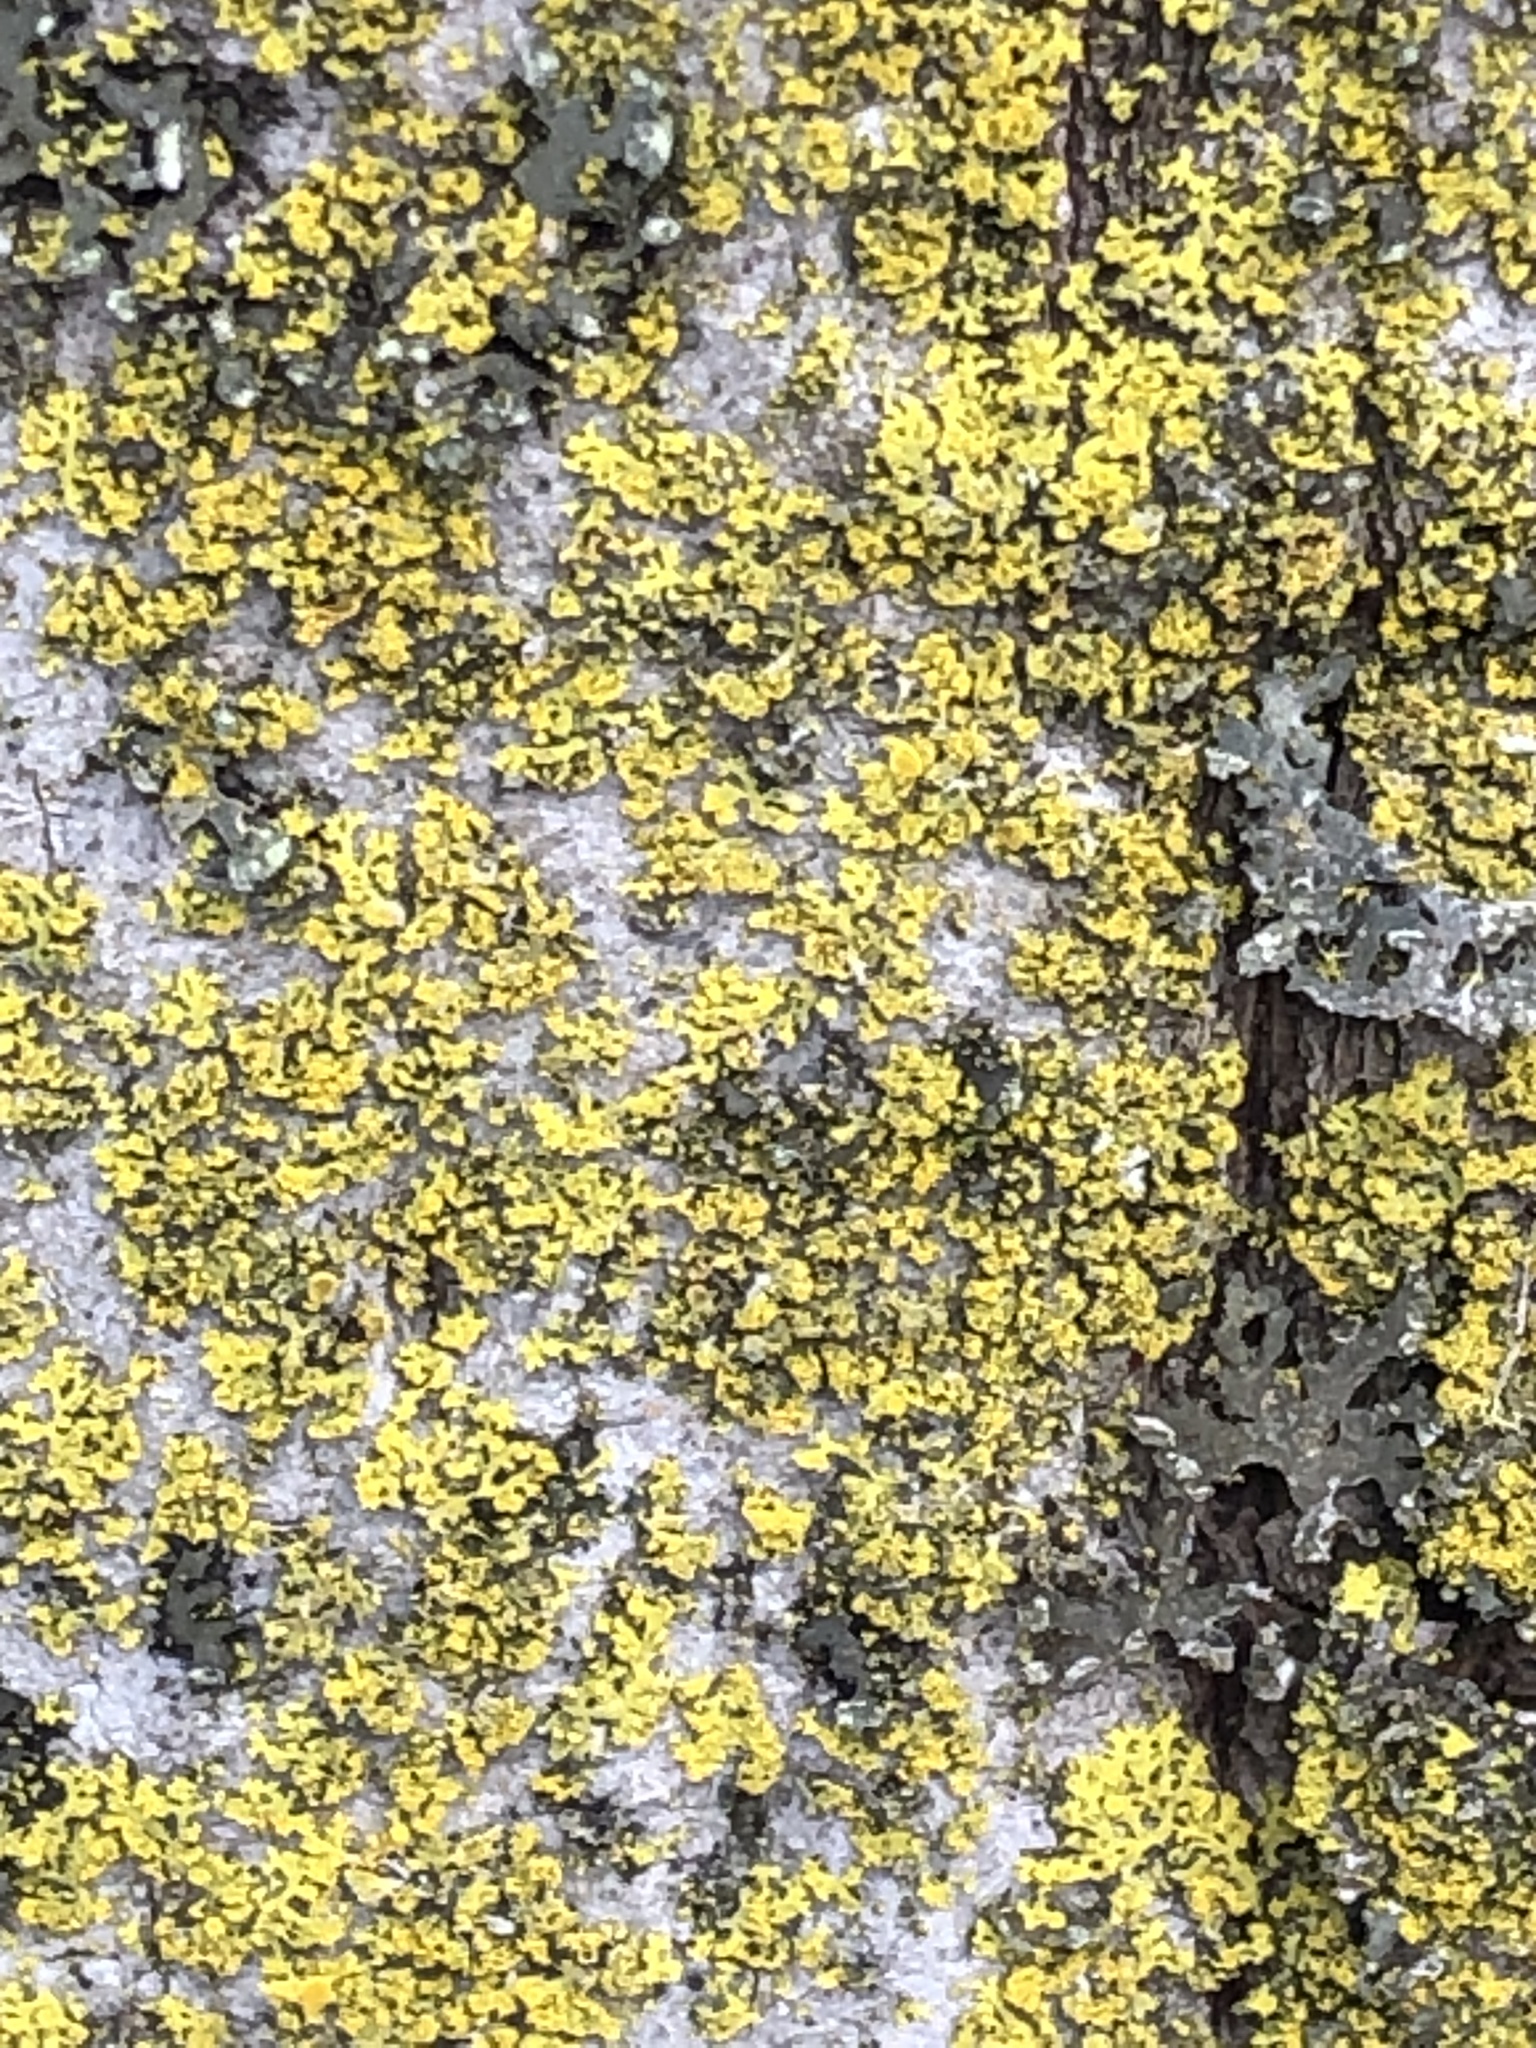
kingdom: Fungi
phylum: Ascomycota
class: Candelariomycetes
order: Candelariales
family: Candelariaceae
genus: Candelaria
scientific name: Candelaria concolor
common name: Candleflame lichen
